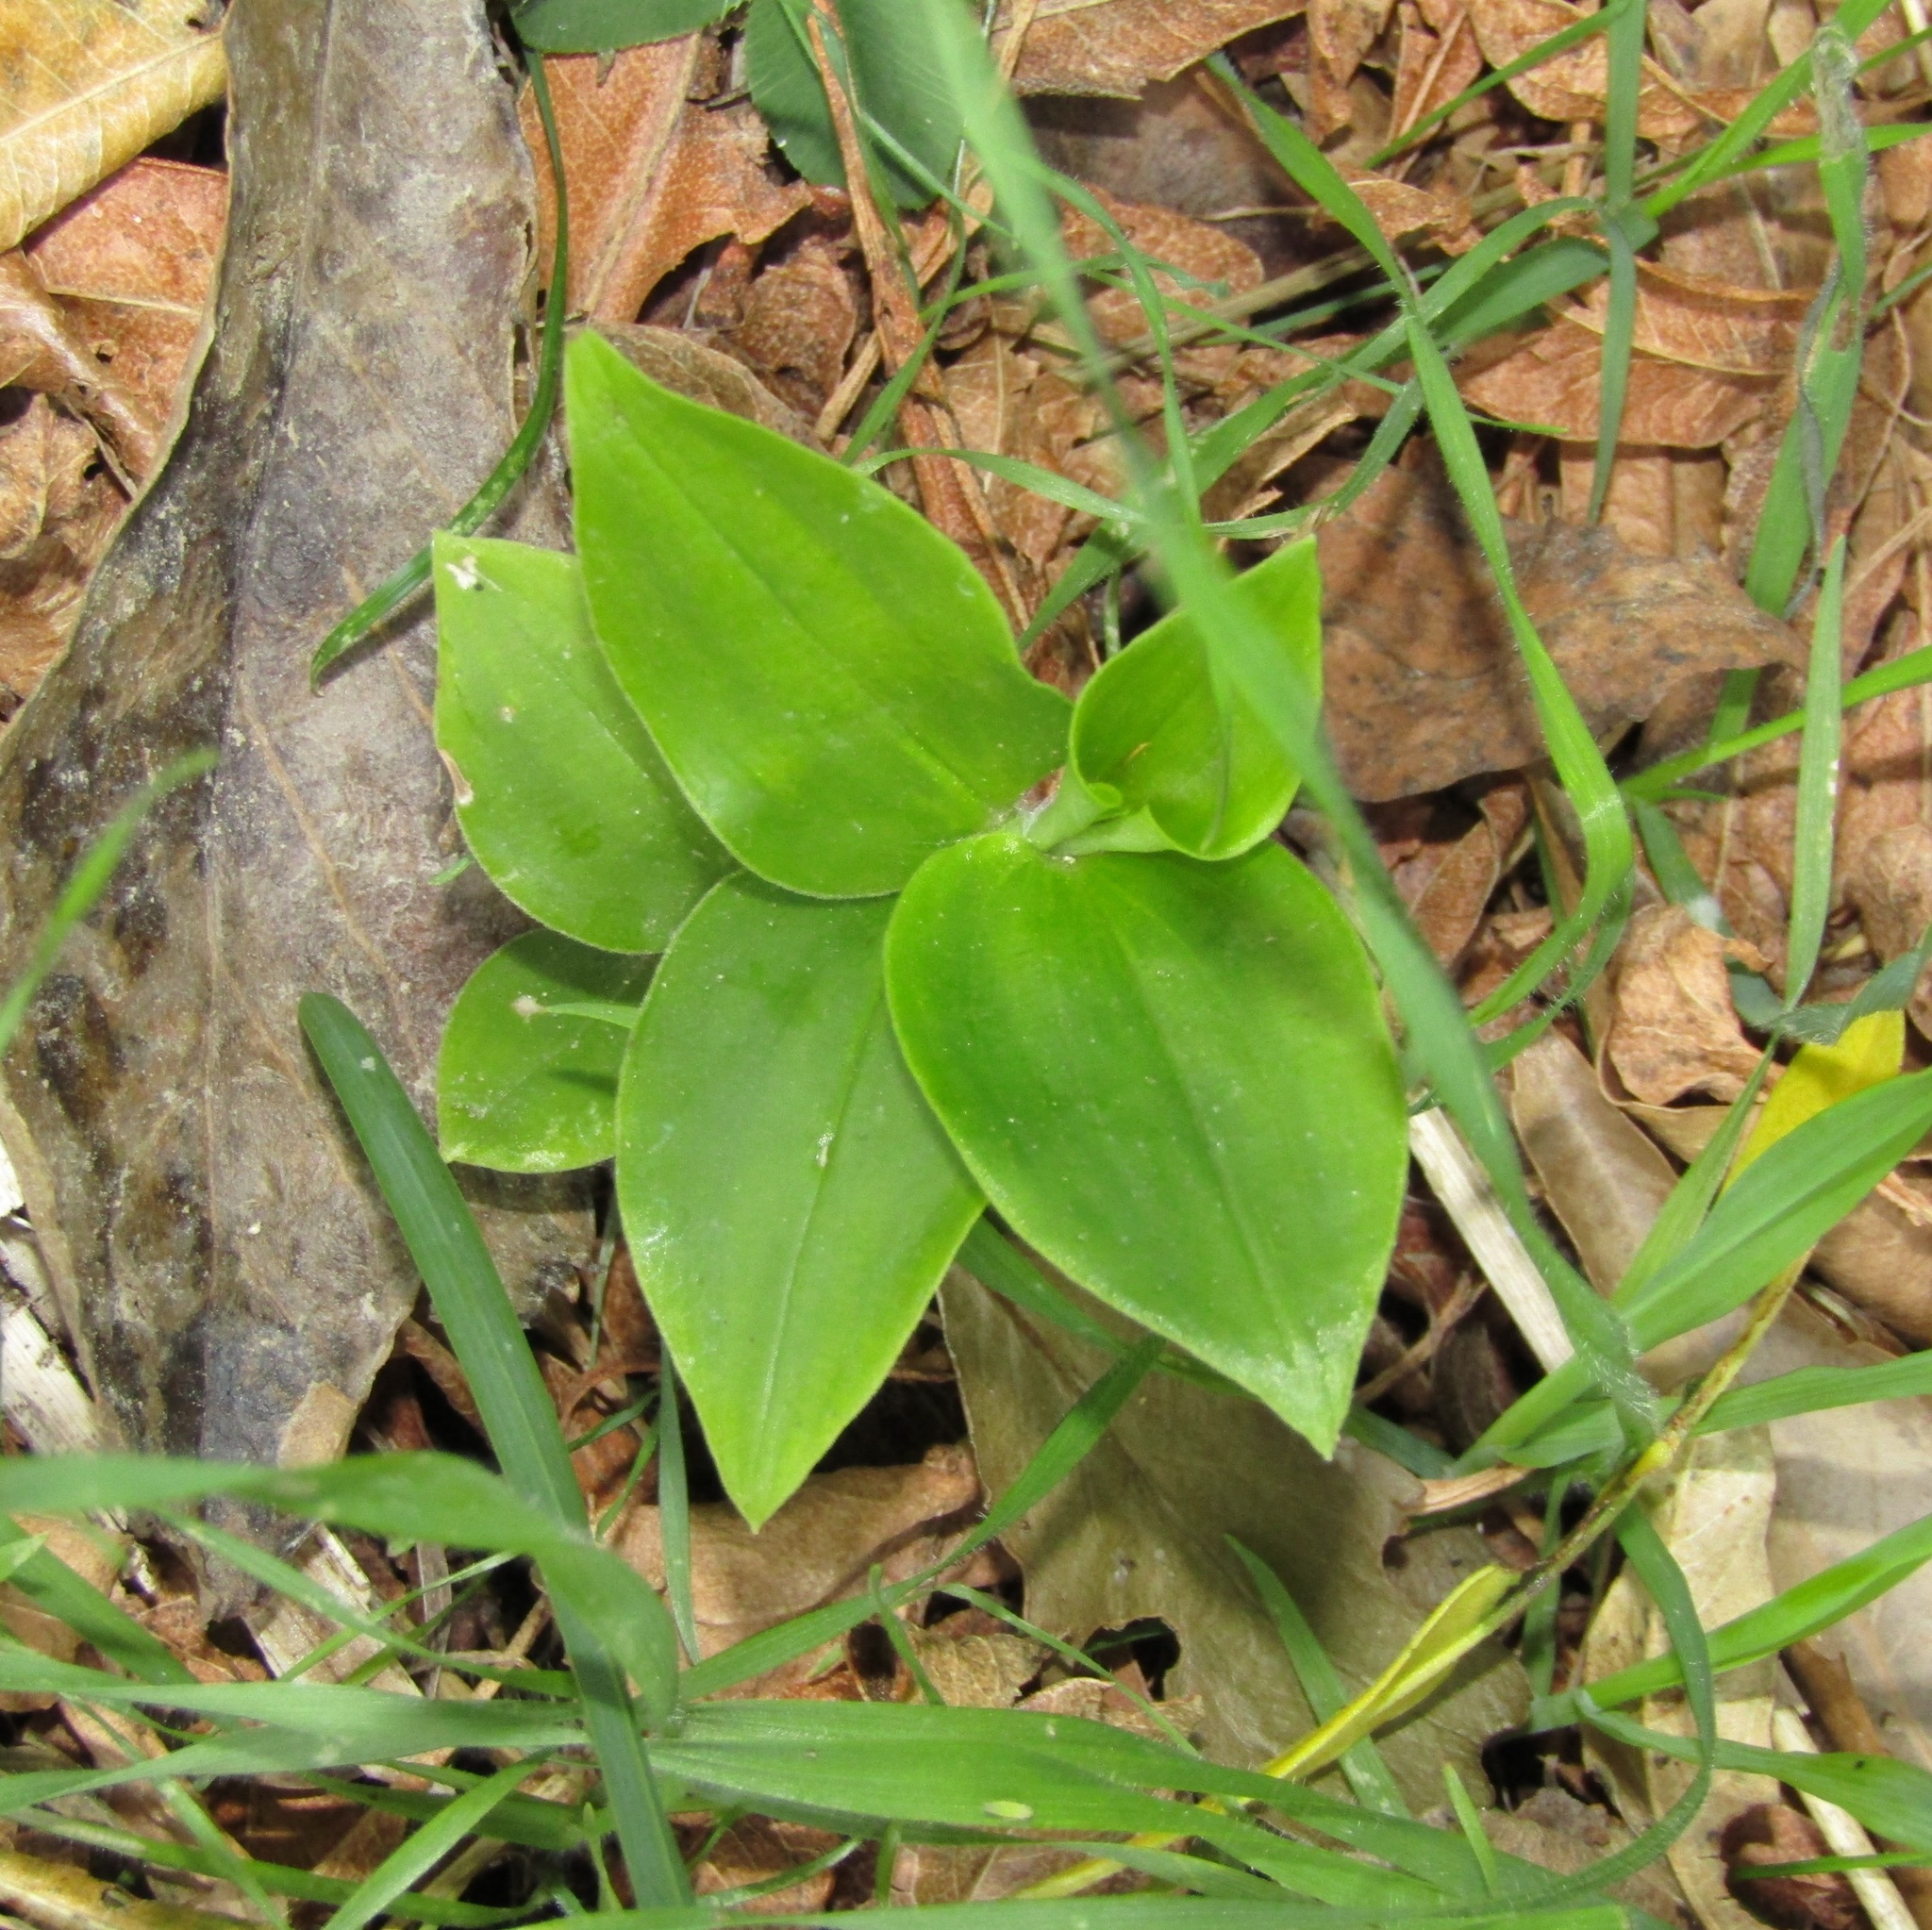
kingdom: Plantae
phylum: Tracheophyta
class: Liliopsida
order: Commelinales
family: Commelinaceae
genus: Tradescantia
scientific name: Tradescantia fluminensis
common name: Wandering-jew
